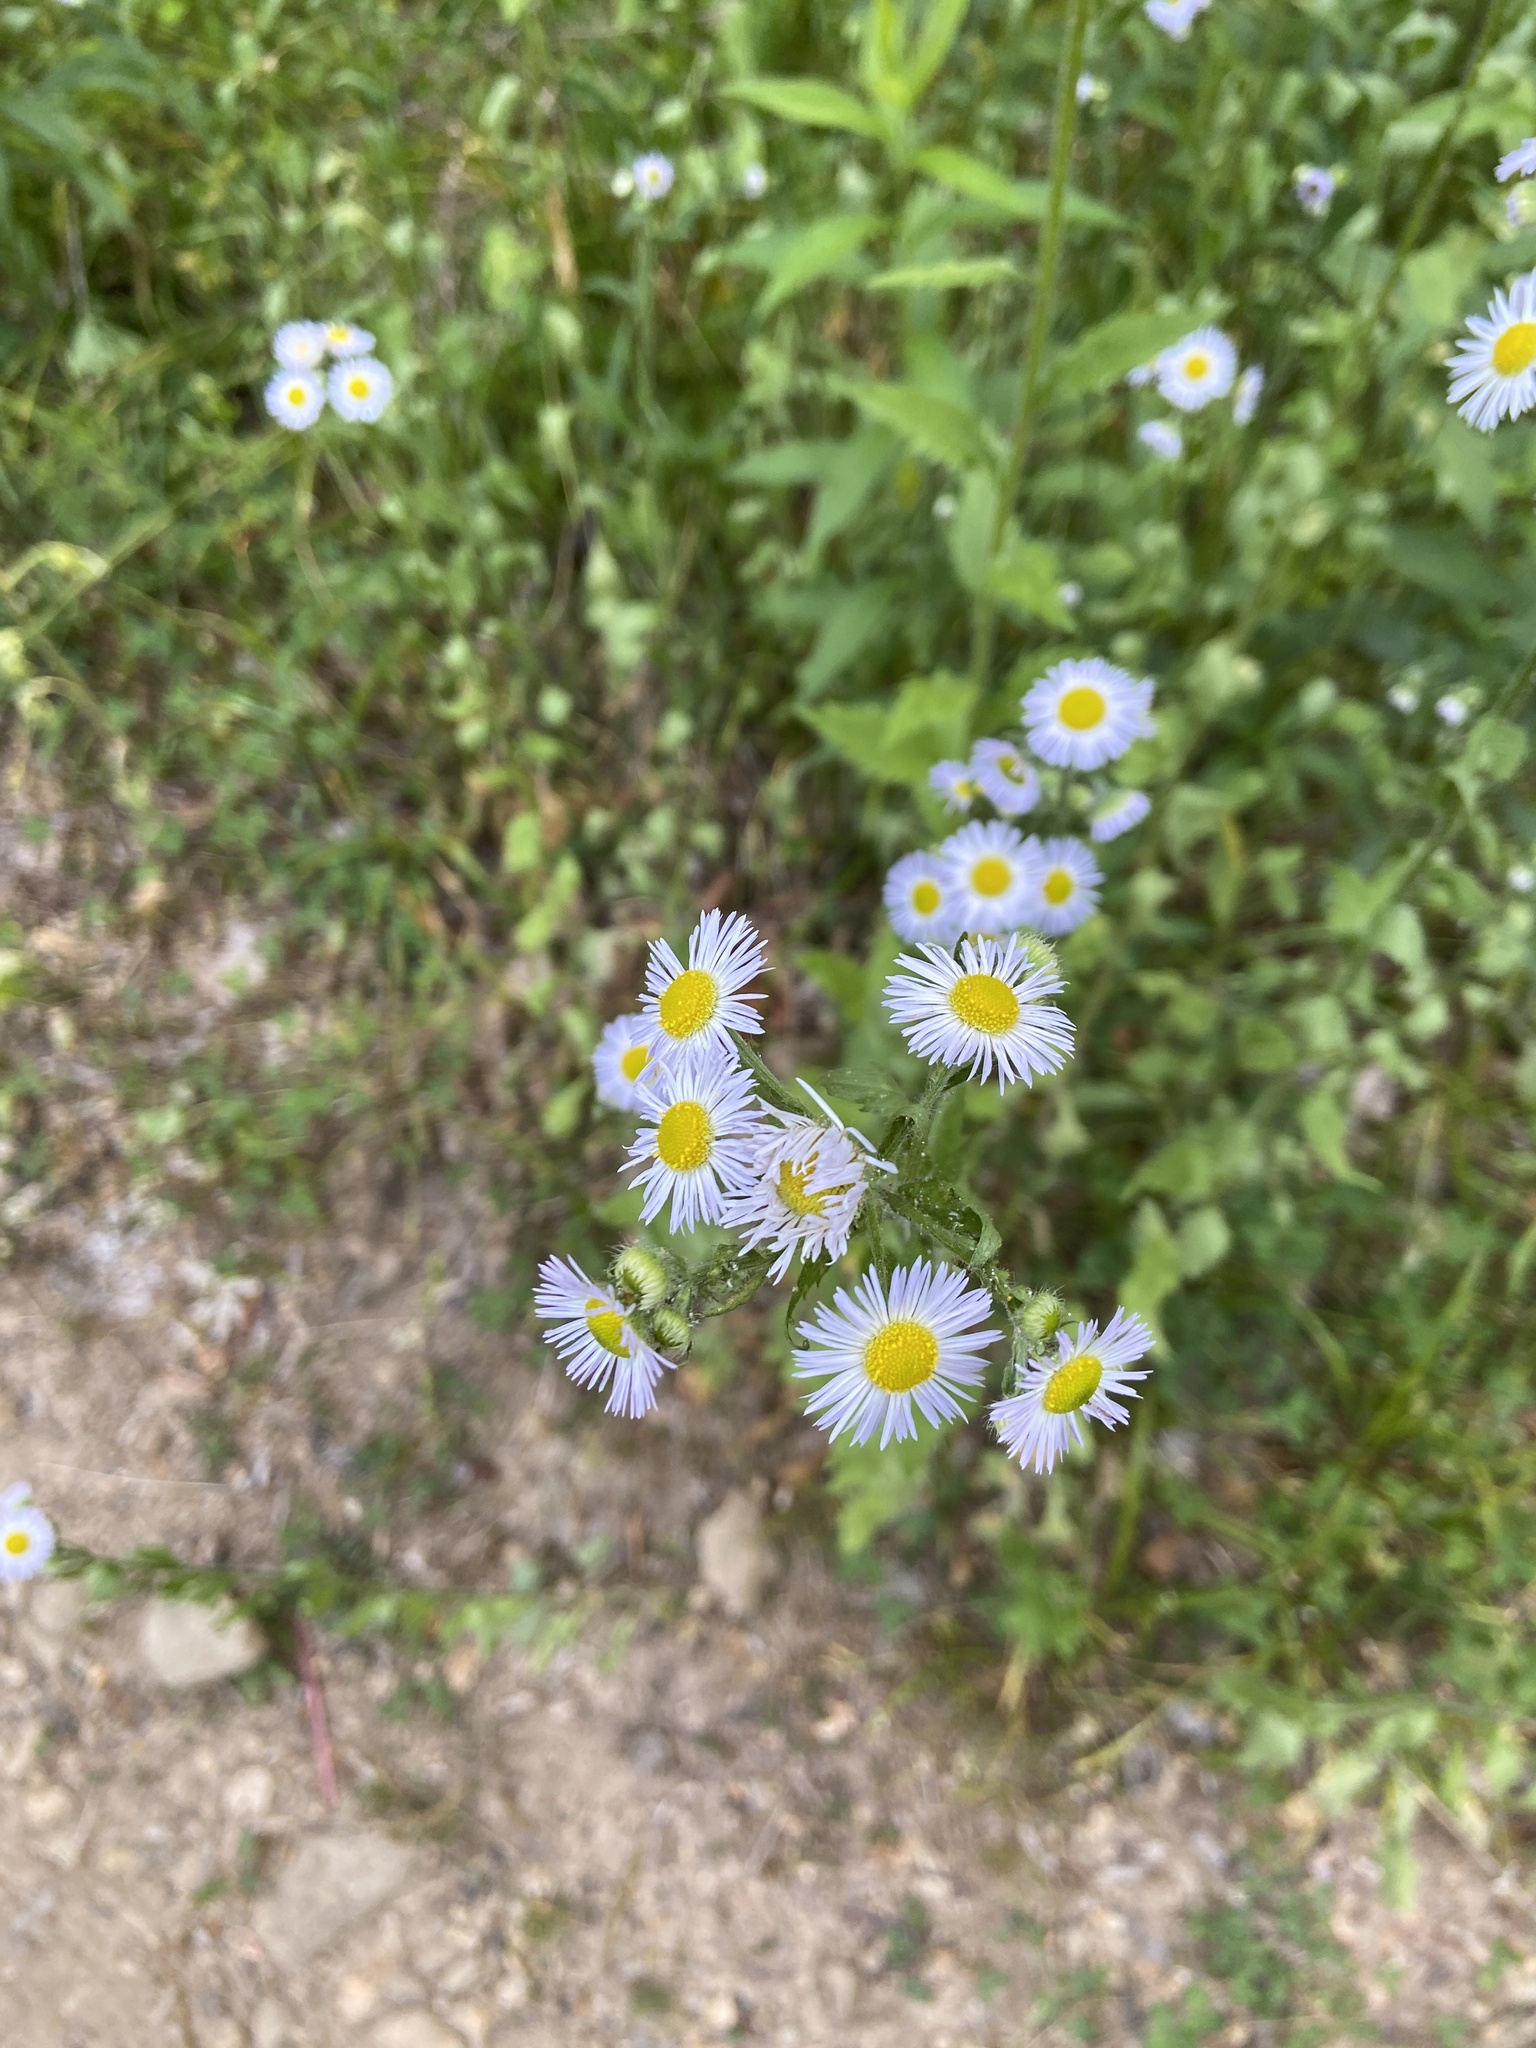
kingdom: Plantae
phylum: Tracheophyta
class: Magnoliopsida
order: Asterales
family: Asteraceae
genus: Erigeron
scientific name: Erigeron annuus
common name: Tall fleabane
